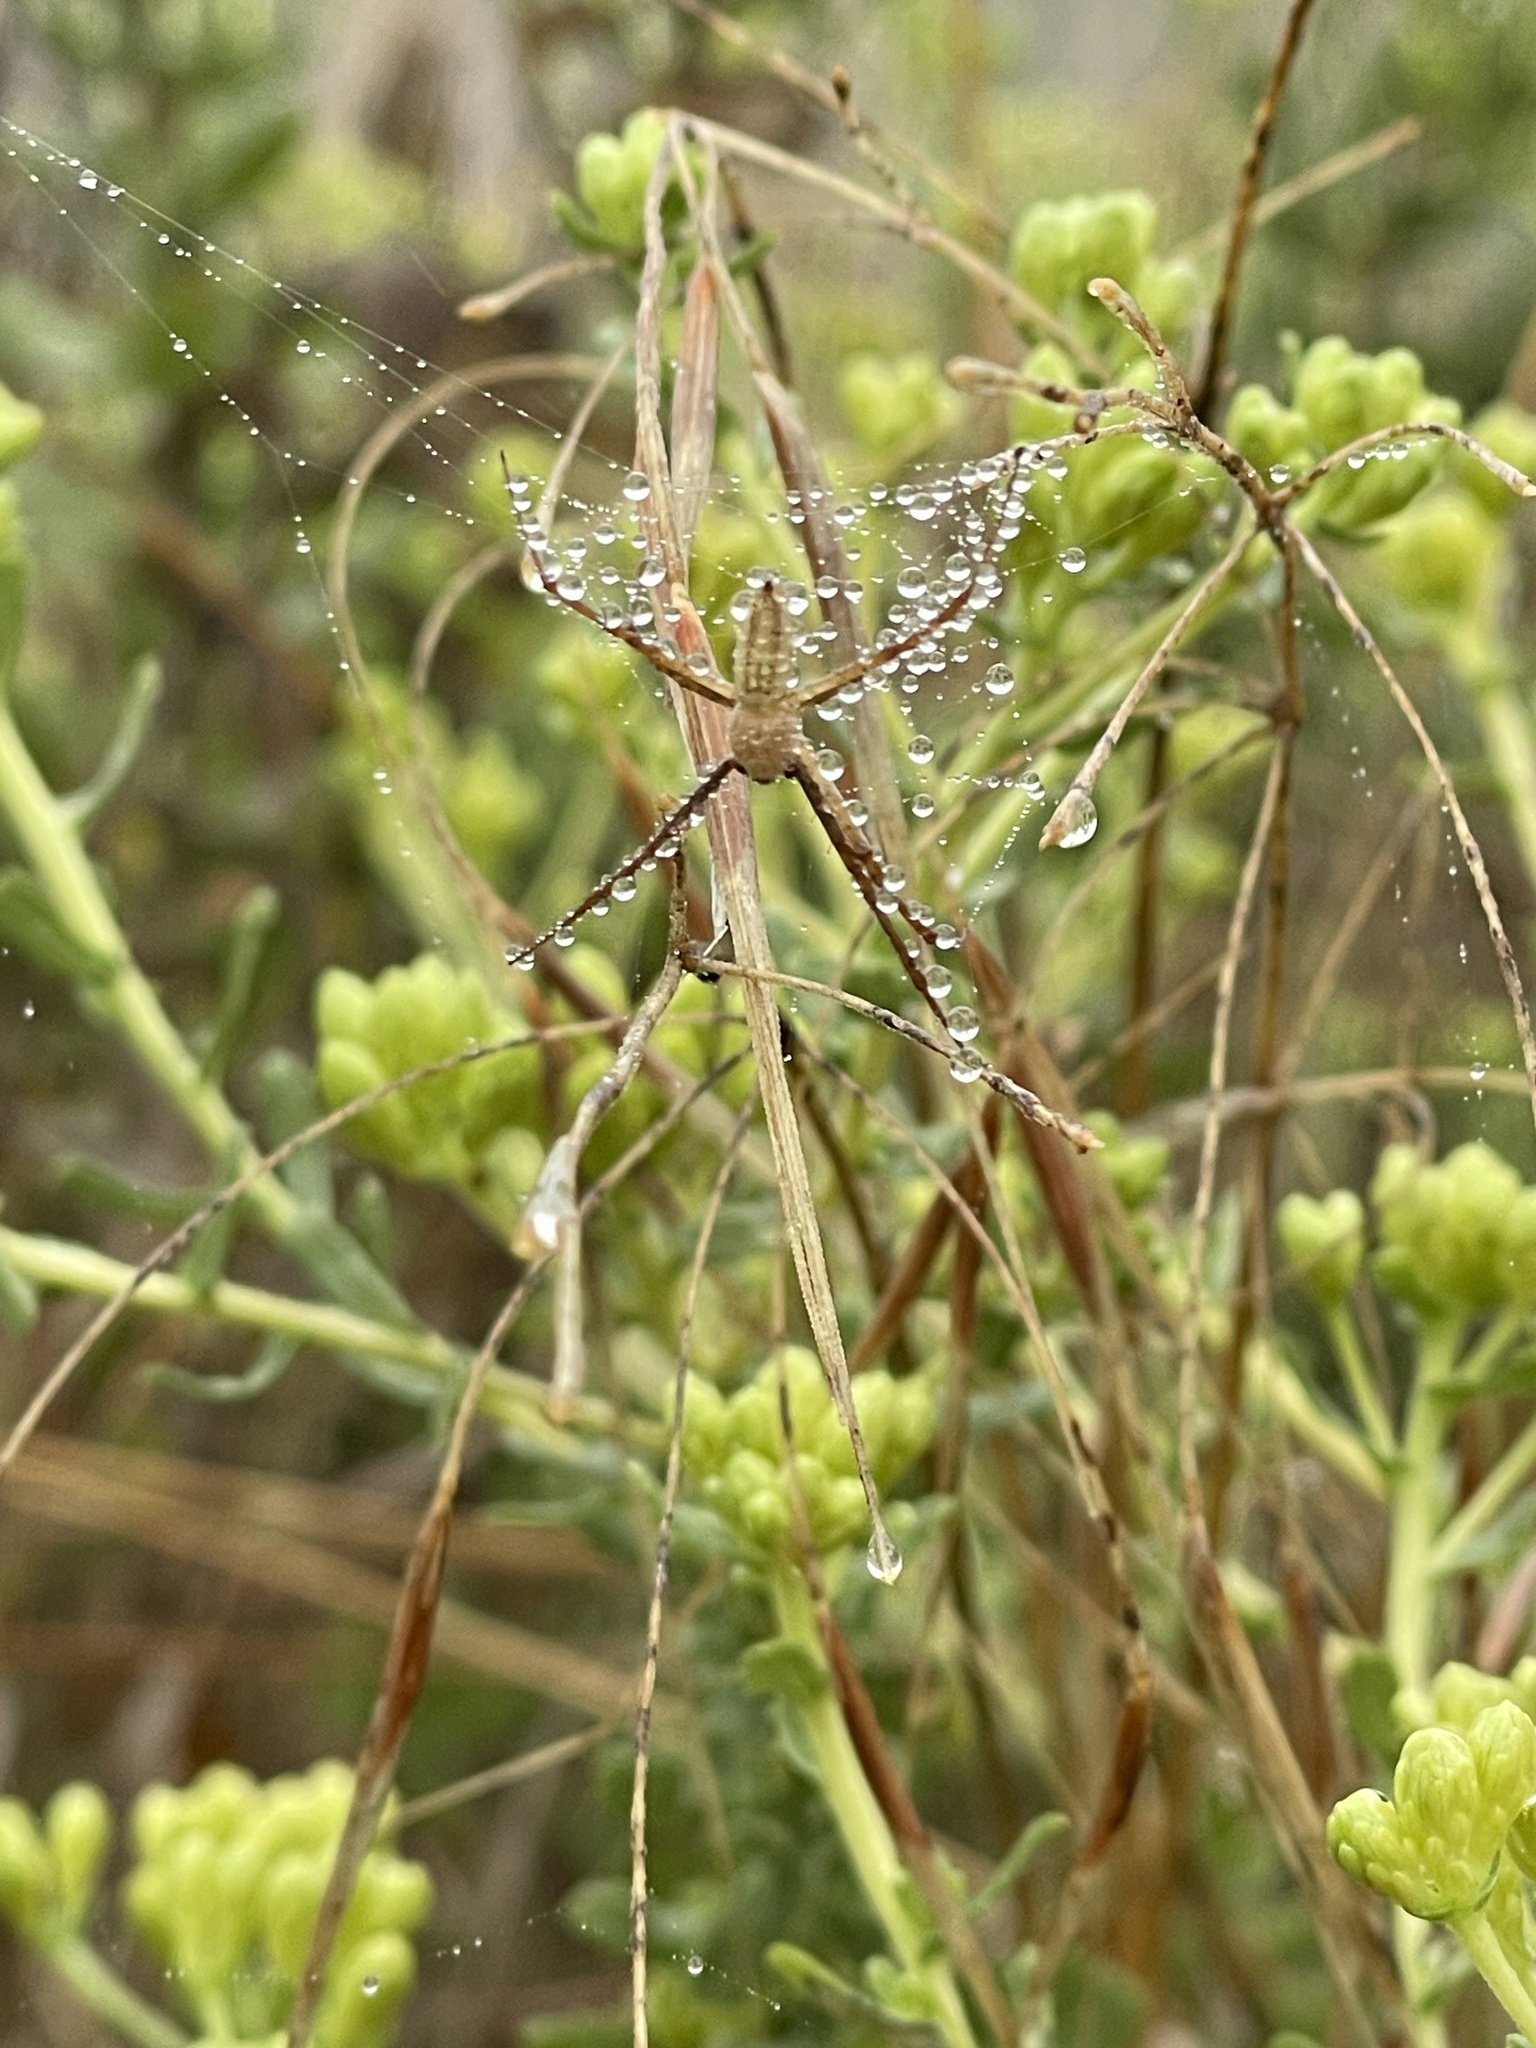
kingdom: Animalia
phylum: Arthropoda
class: Arachnida
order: Araneae
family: Araneidae
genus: Argiope
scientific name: Argiope trifasciata
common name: Banded garden spider
